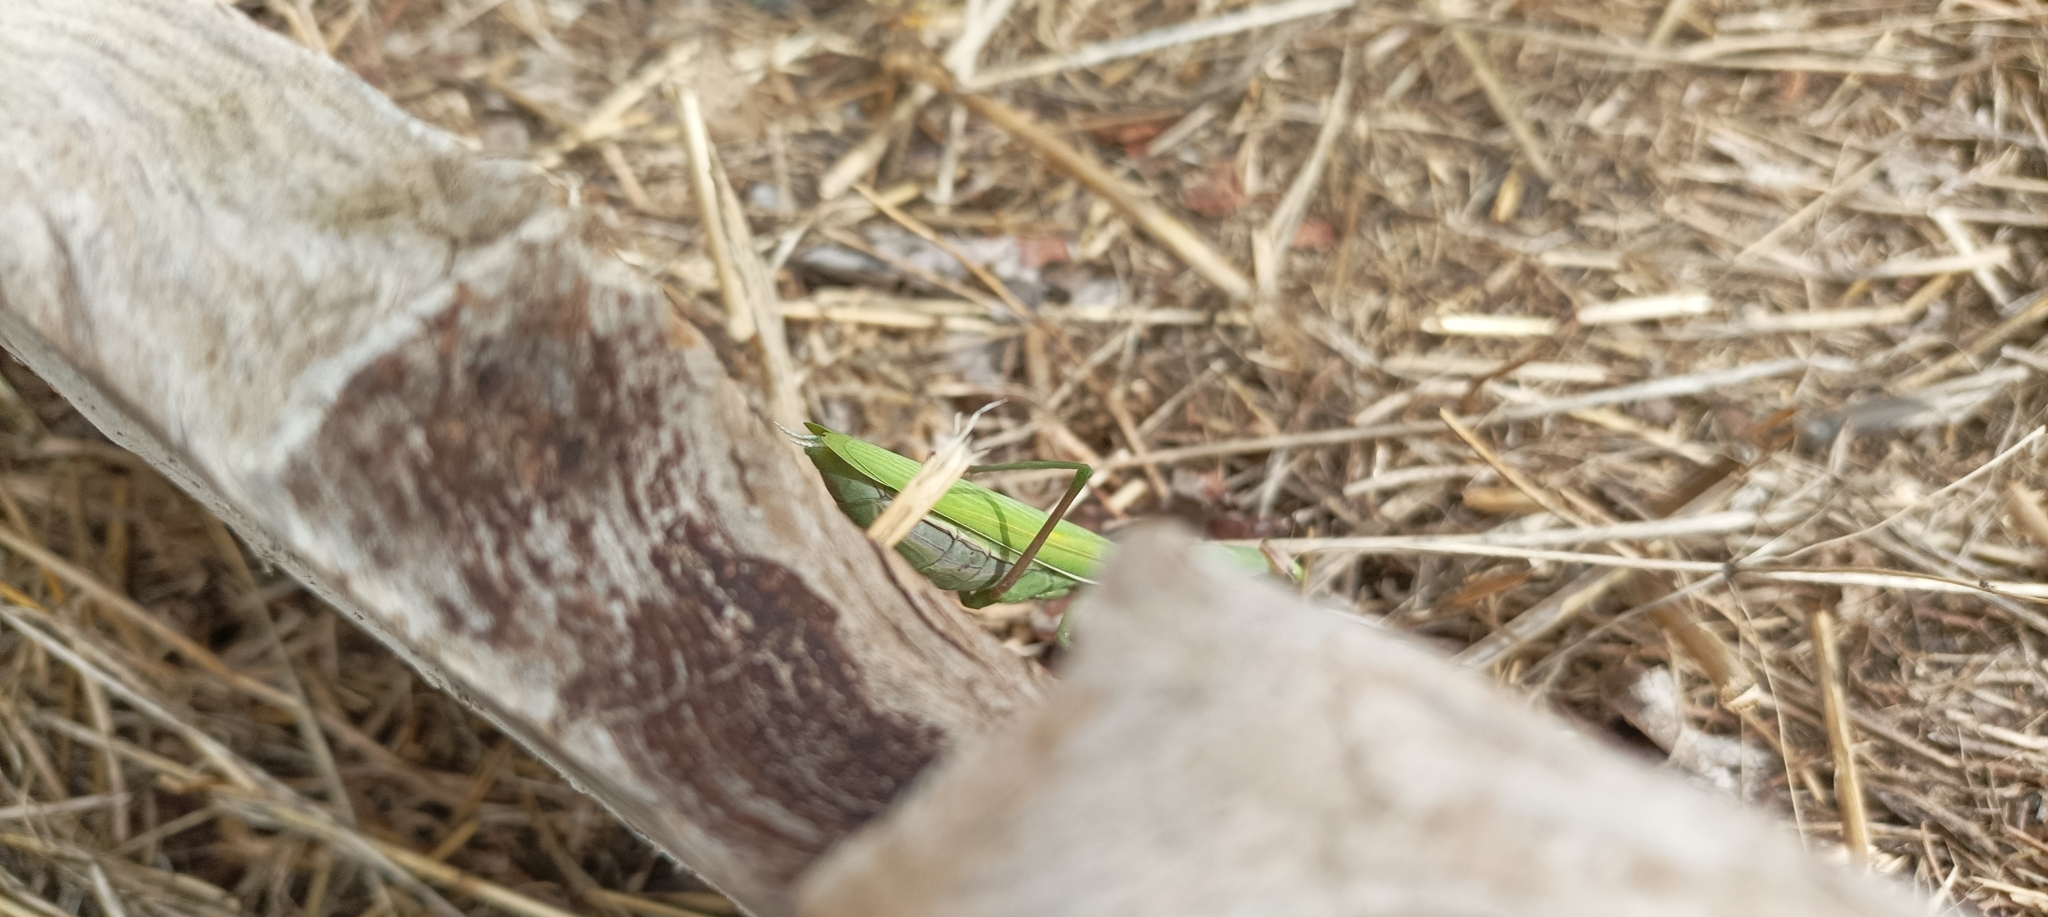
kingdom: Animalia
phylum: Arthropoda
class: Insecta
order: Mantodea
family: Mantidae
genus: Mantis
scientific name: Mantis religiosa
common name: Praying mantis
